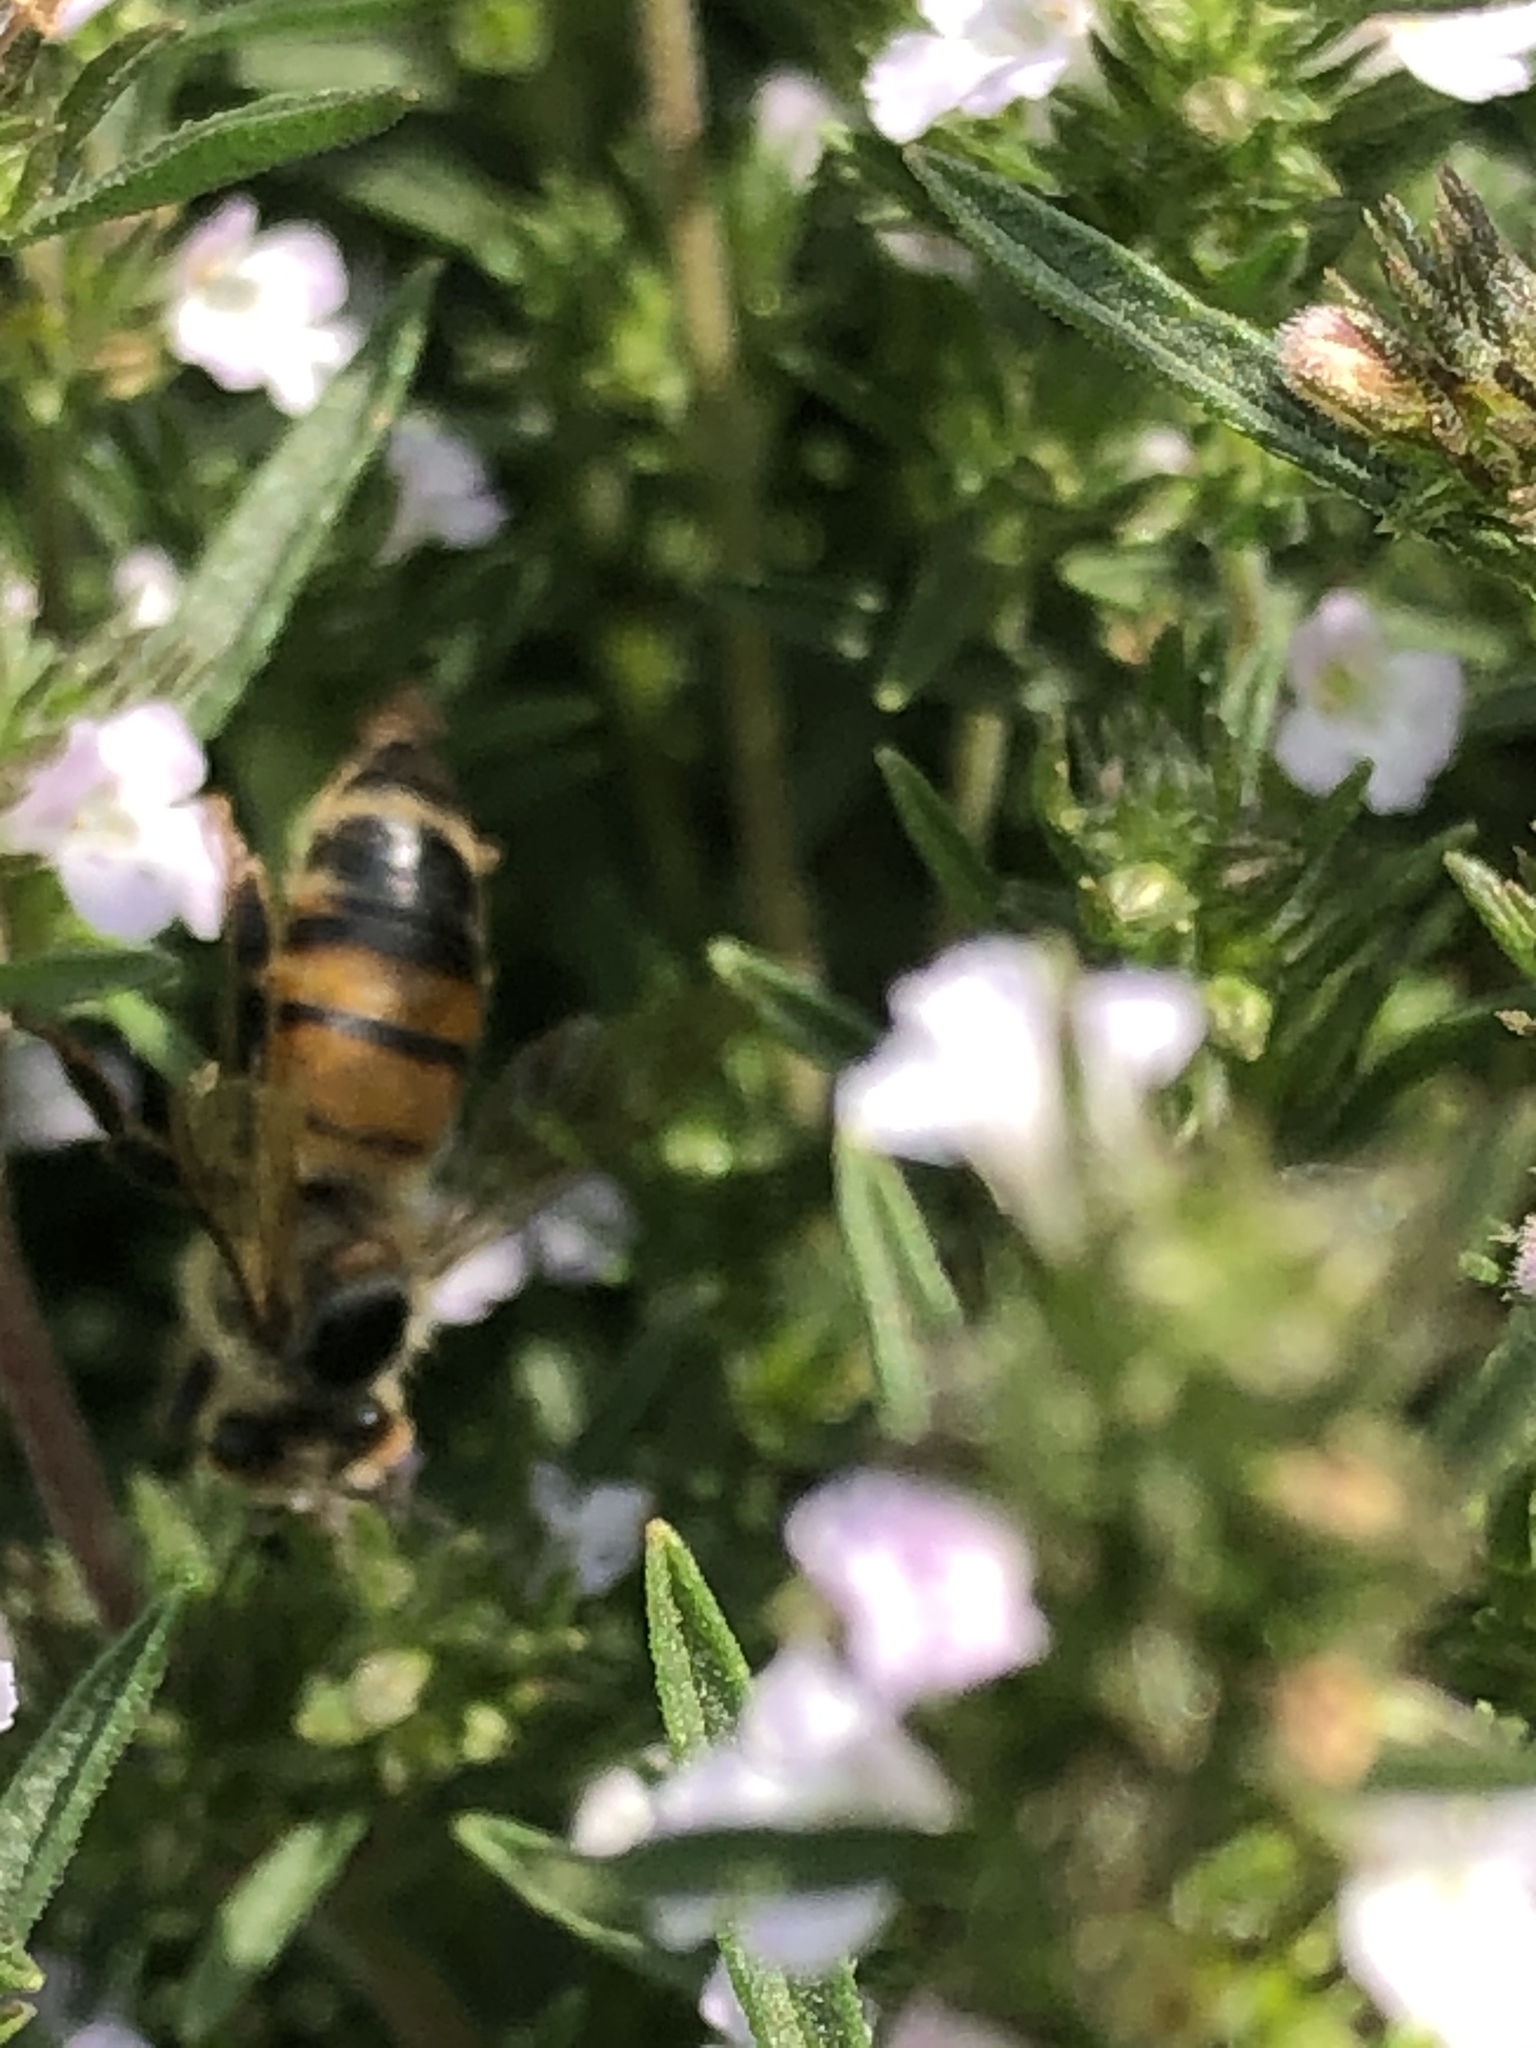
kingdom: Animalia
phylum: Arthropoda
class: Insecta
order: Hymenoptera
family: Apidae
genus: Apis
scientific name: Apis mellifera
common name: Honey bee
